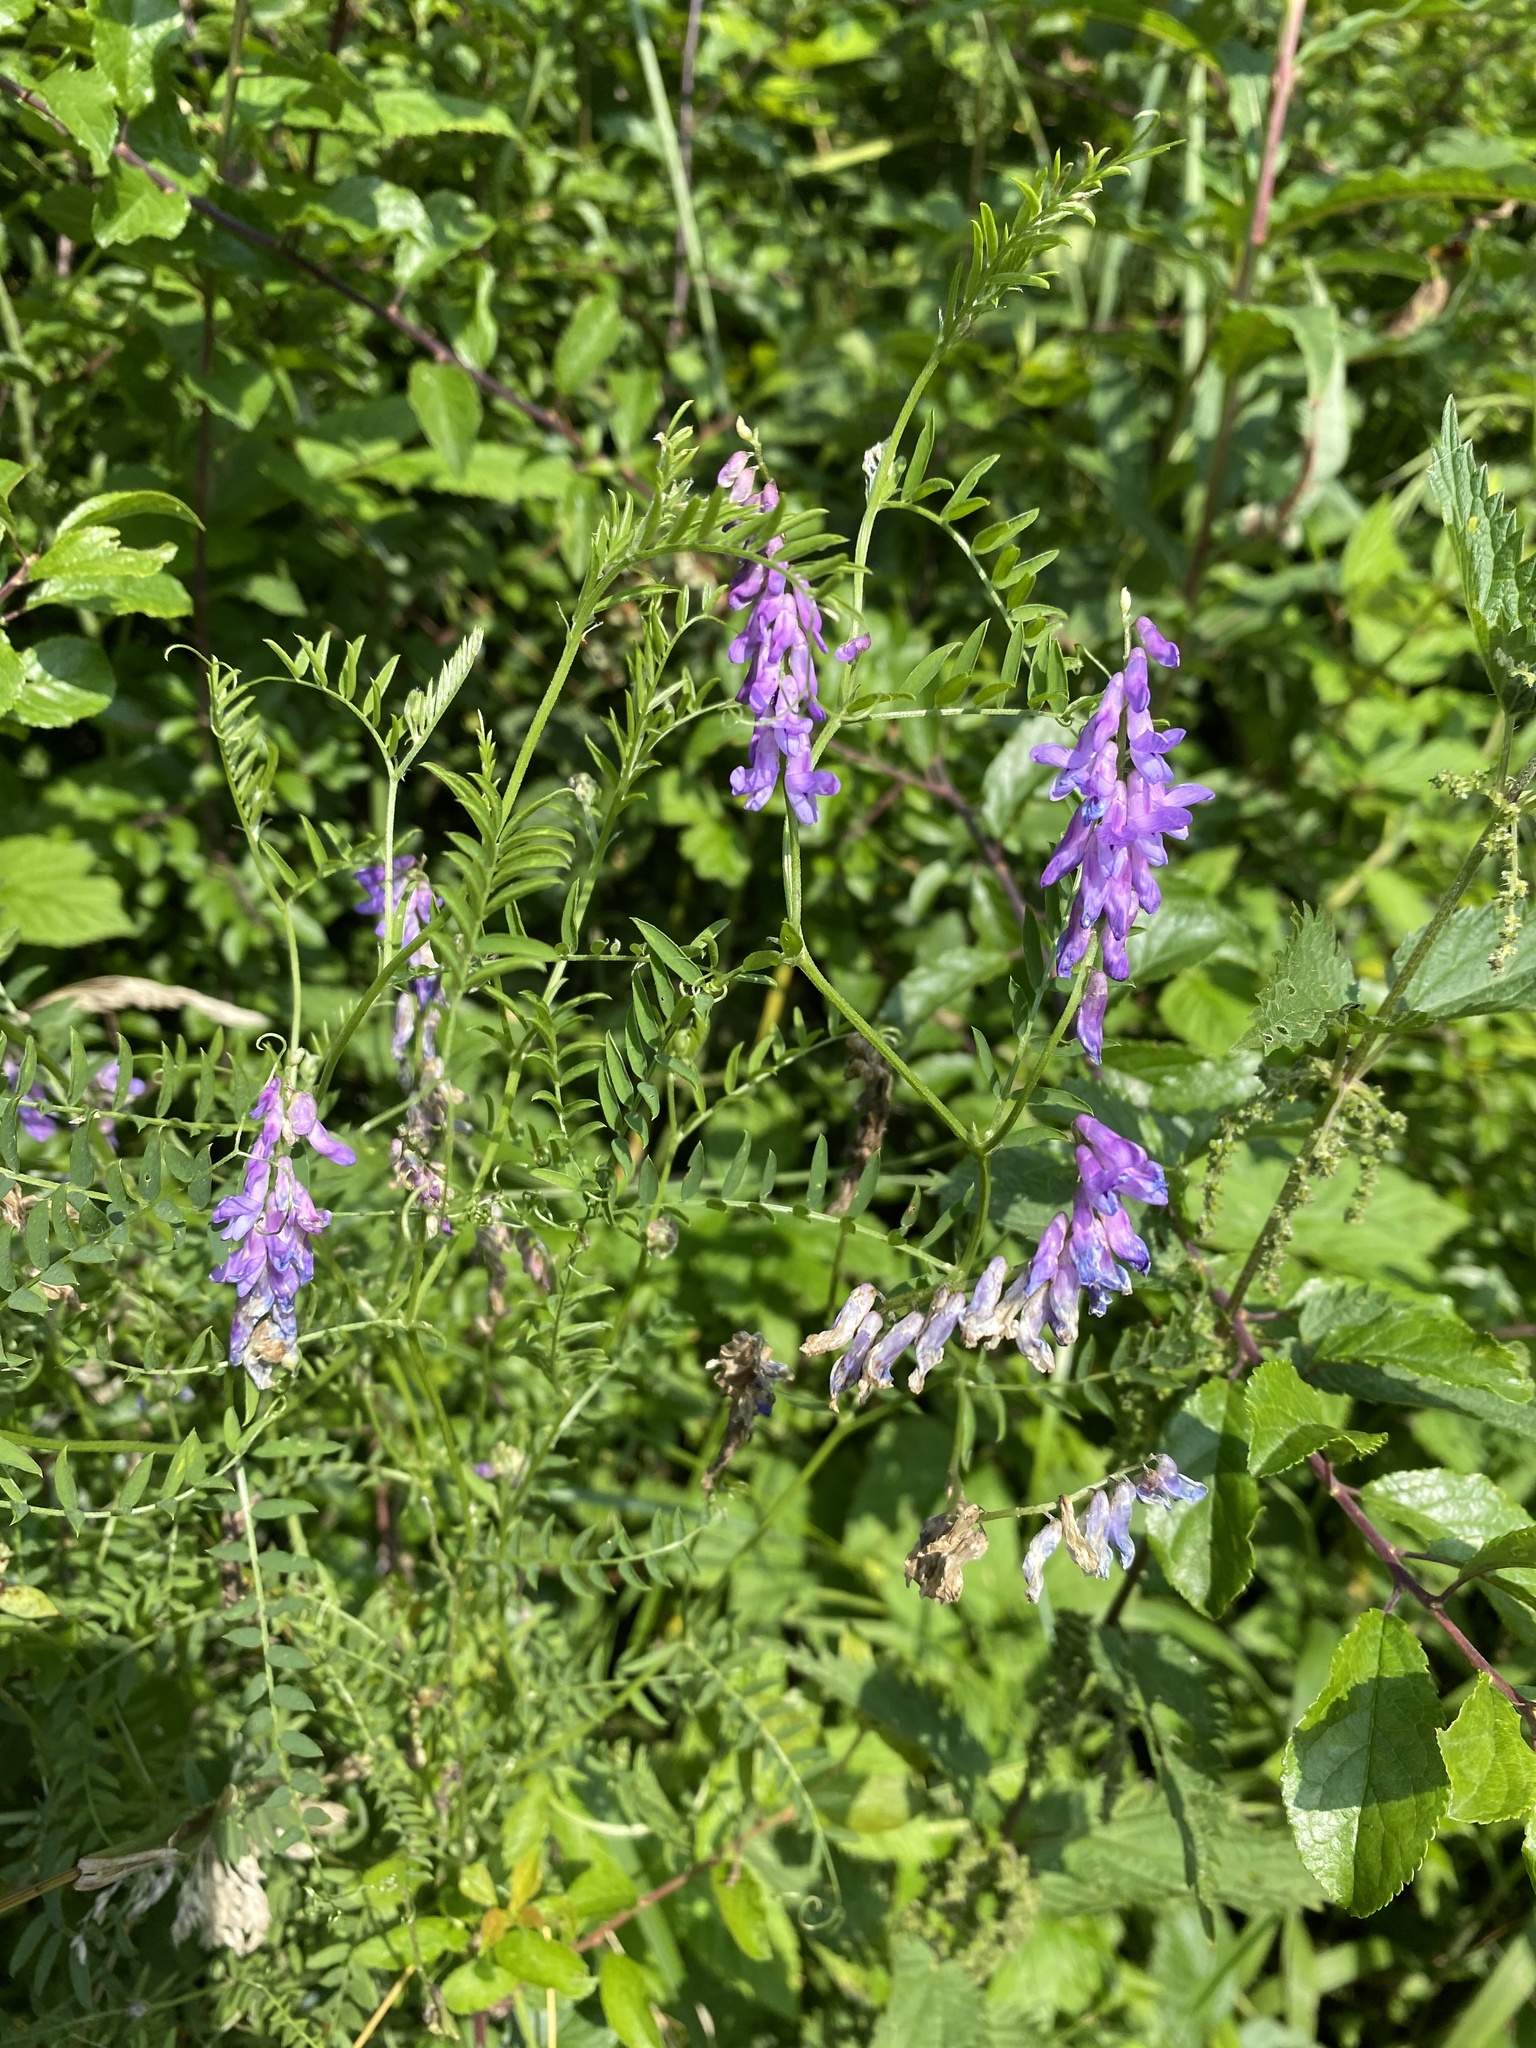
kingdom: Plantae
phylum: Tracheophyta
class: Magnoliopsida
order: Fabales
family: Fabaceae
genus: Vicia
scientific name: Vicia cracca
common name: Bird vetch
